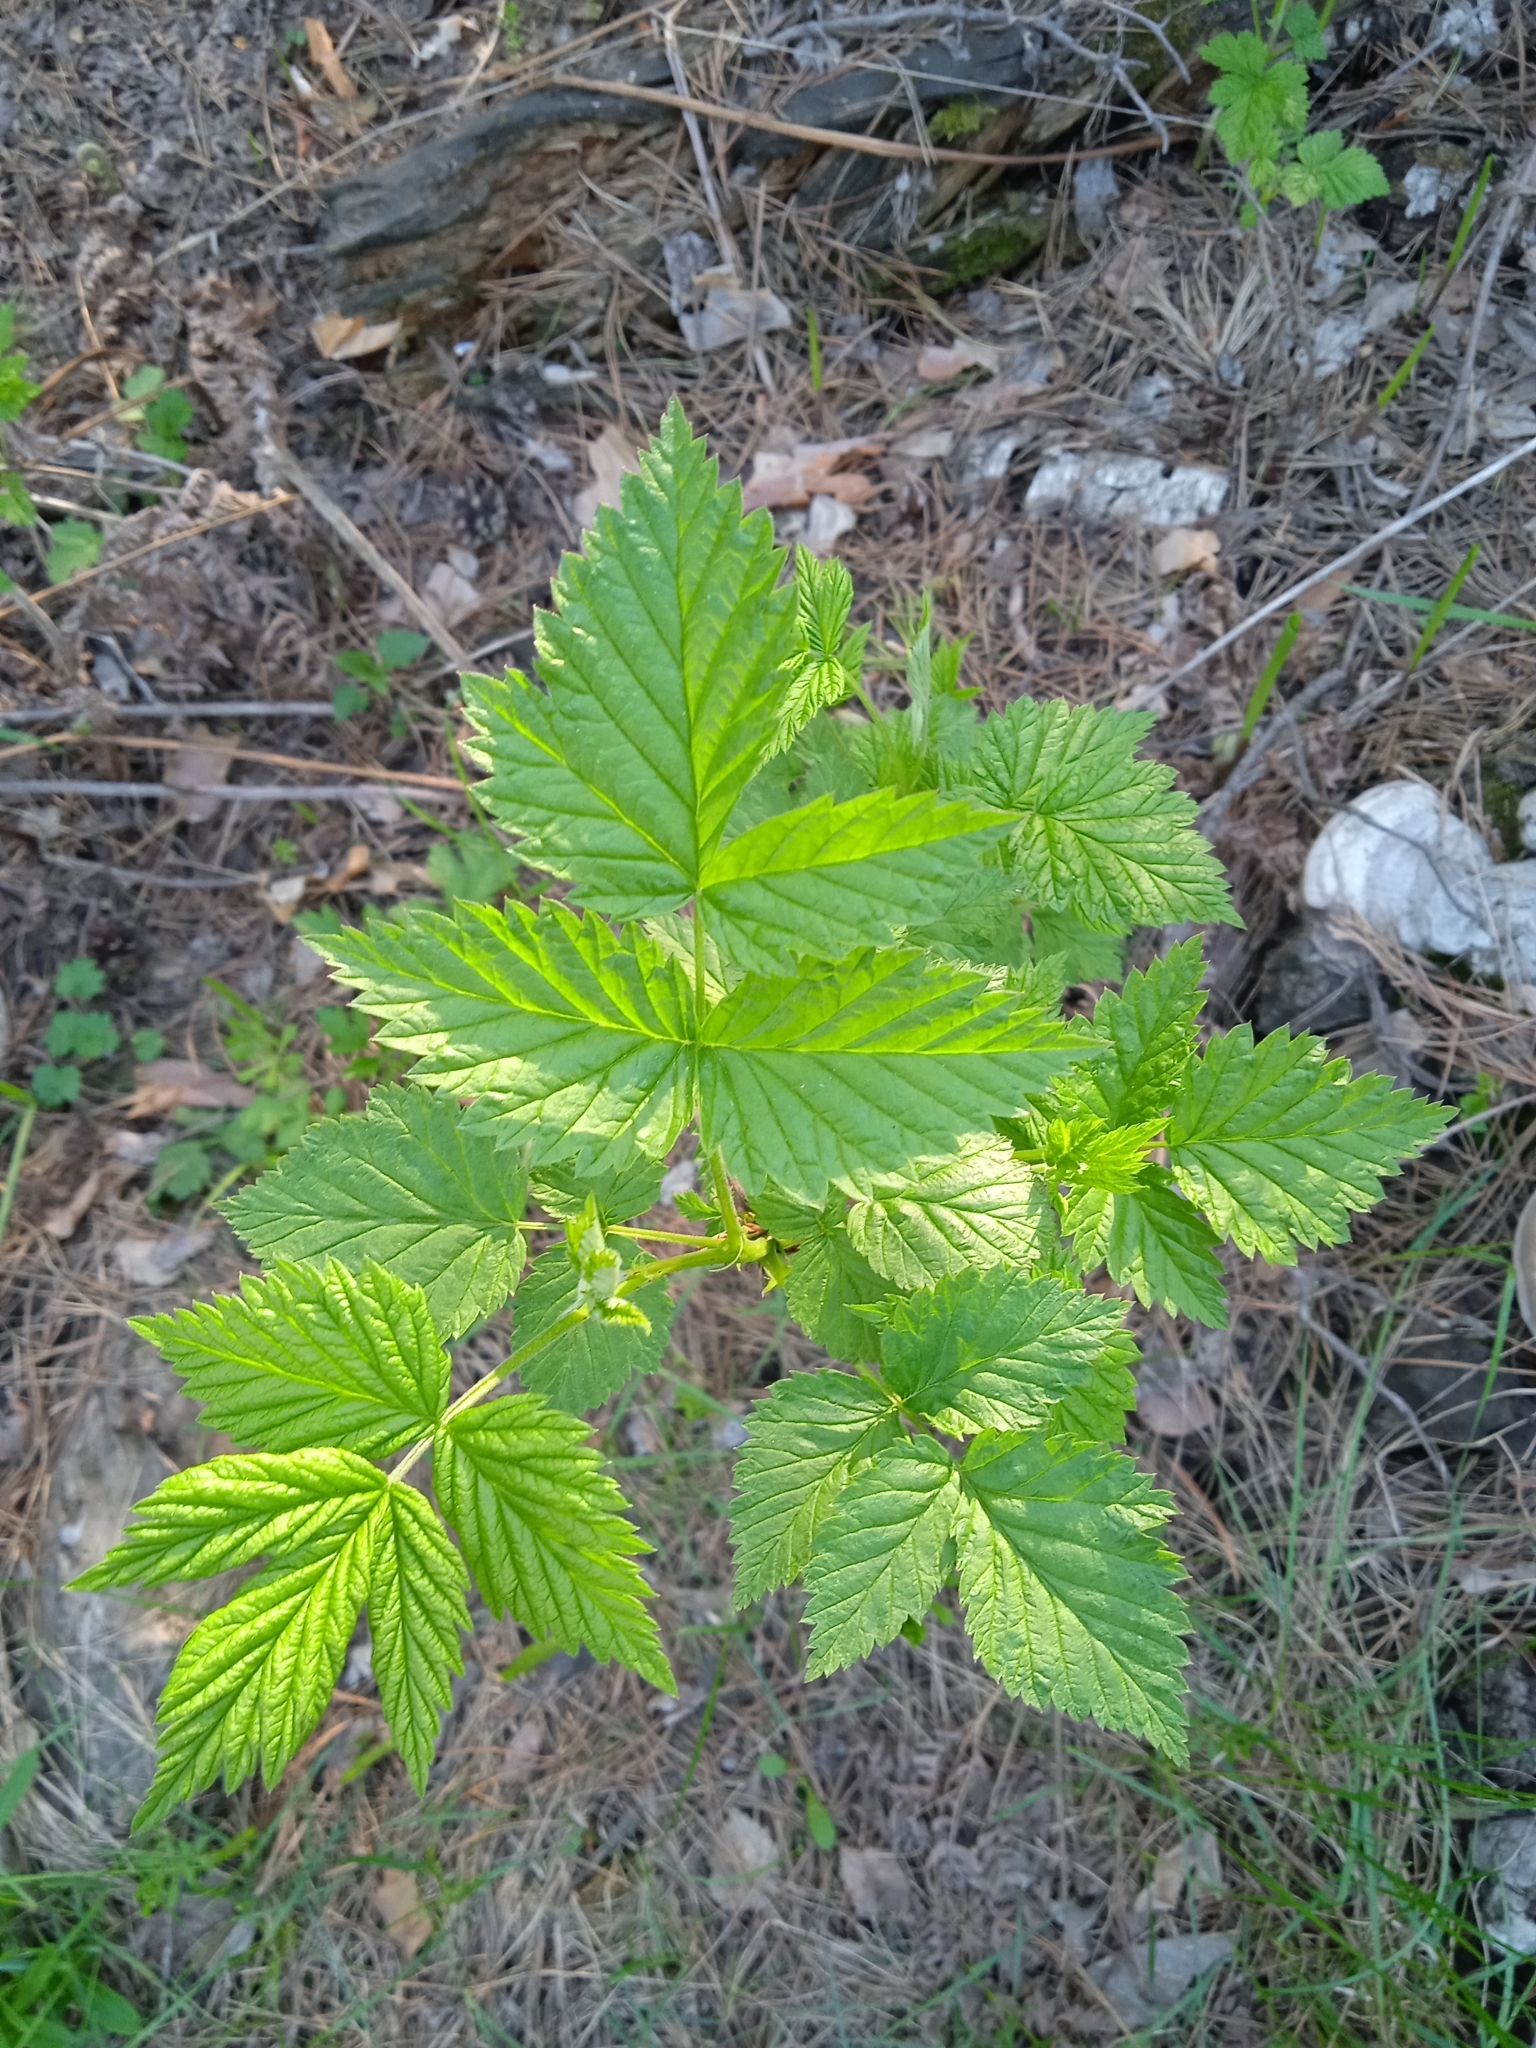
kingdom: Plantae
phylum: Tracheophyta
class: Magnoliopsida
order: Rosales
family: Rosaceae
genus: Rubus
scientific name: Rubus idaeus
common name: Raspberry
